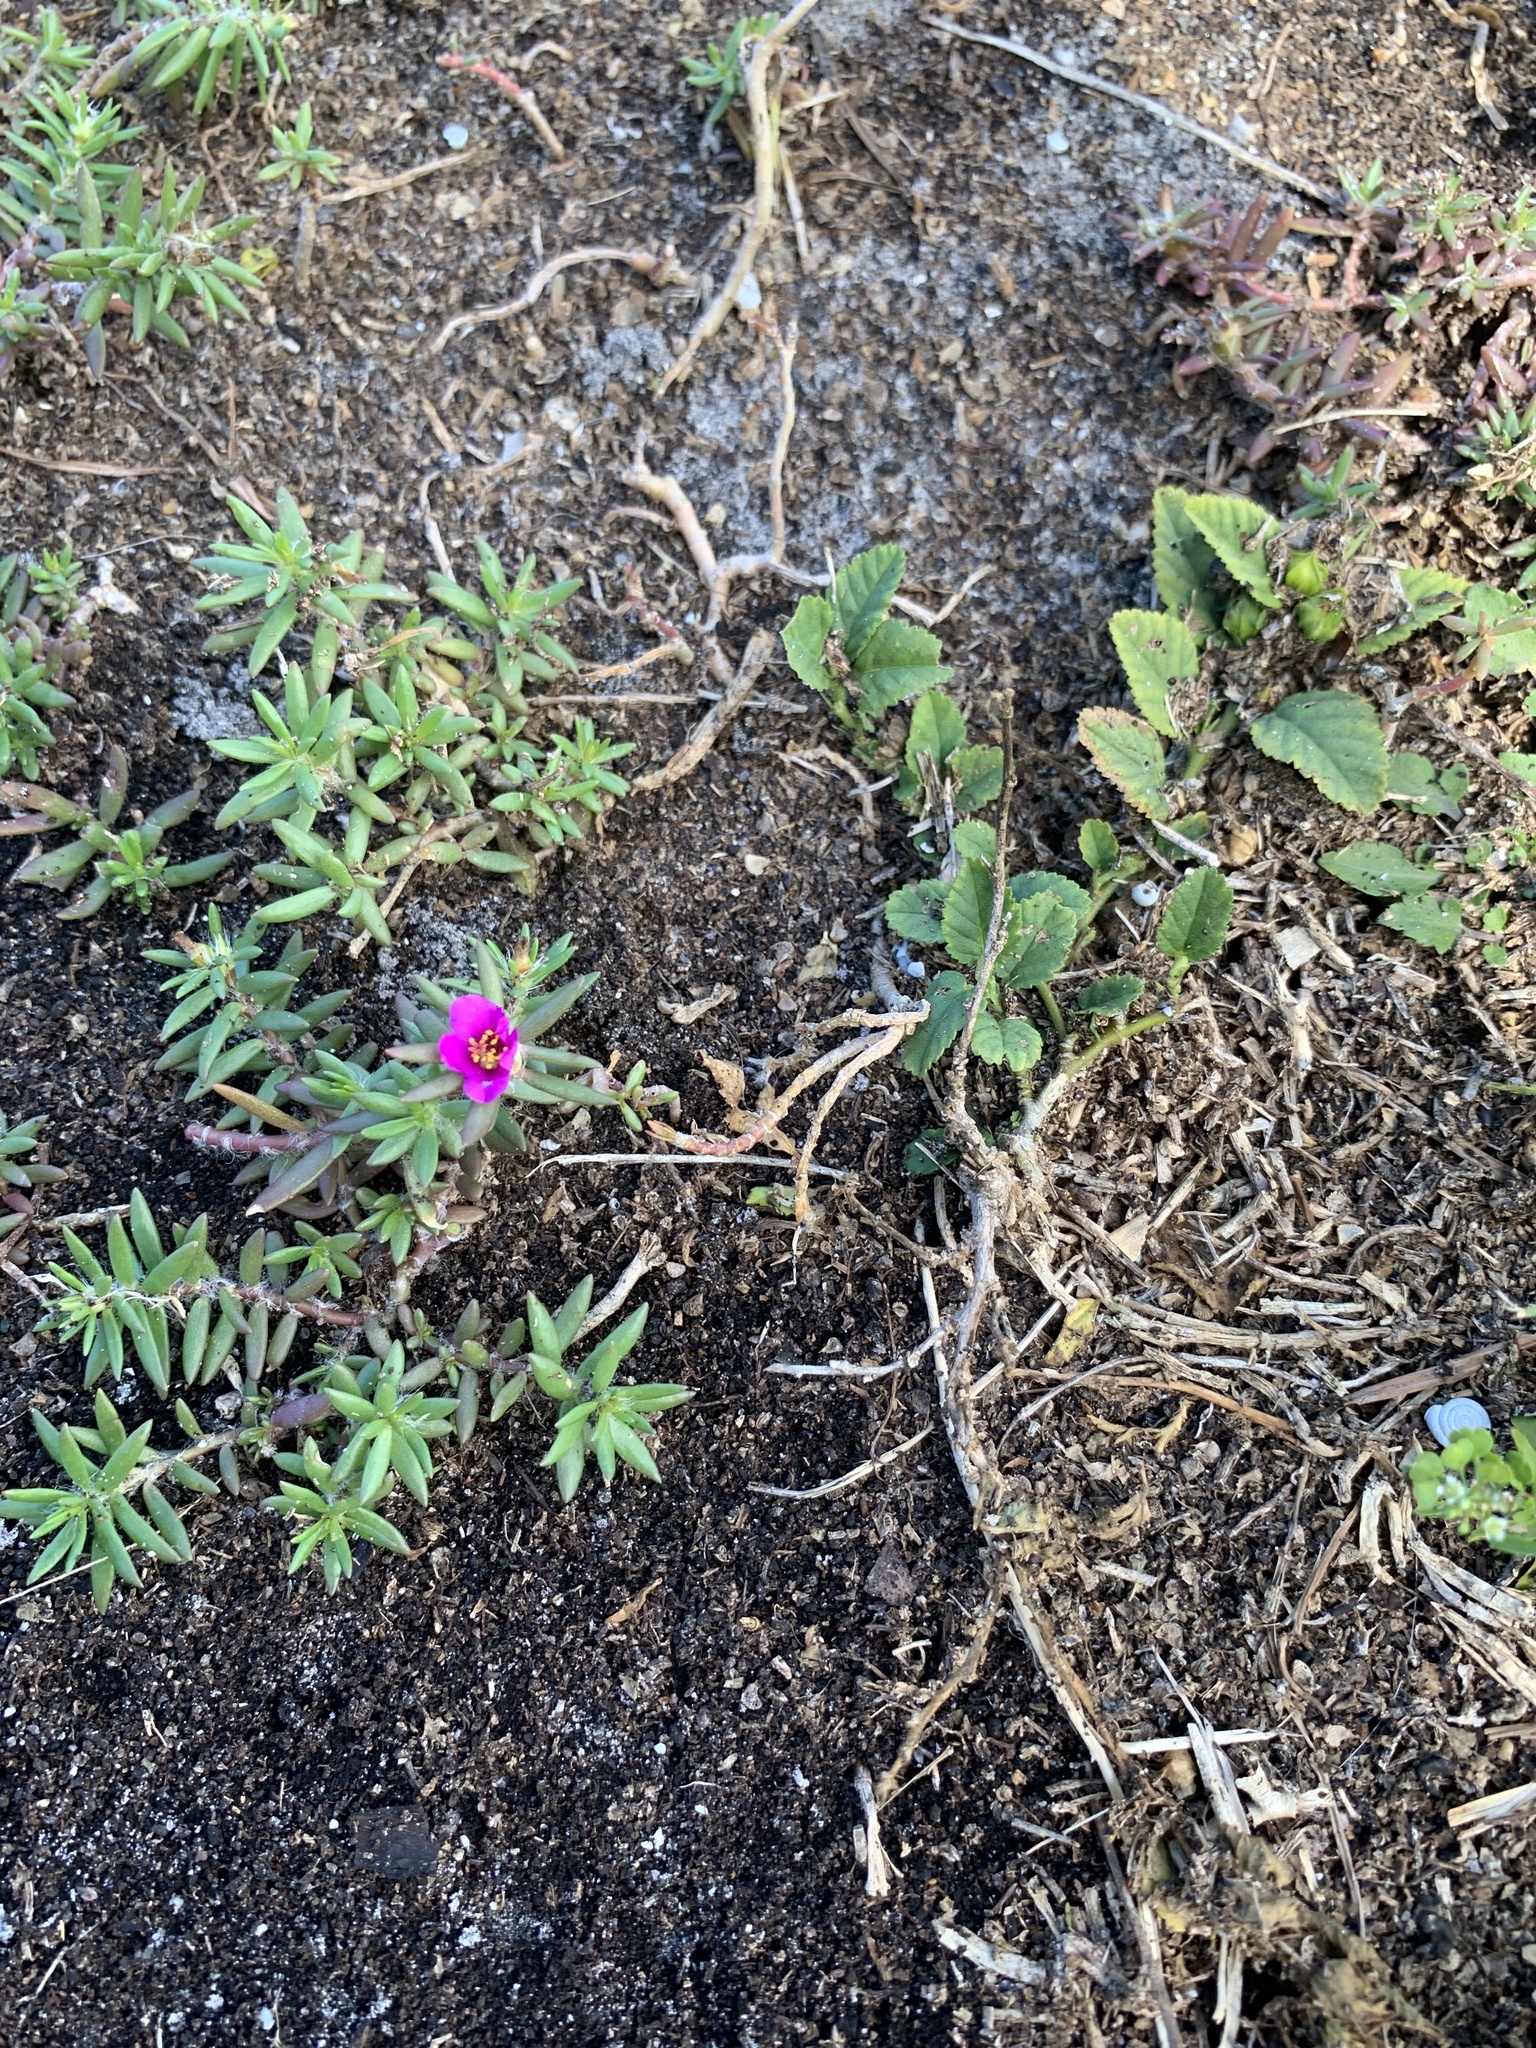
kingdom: Plantae
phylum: Tracheophyta
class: Magnoliopsida
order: Caryophyllales
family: Portulacaceae
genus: Portulaca
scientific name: Portulaca pilosa
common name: Kiss me quick
